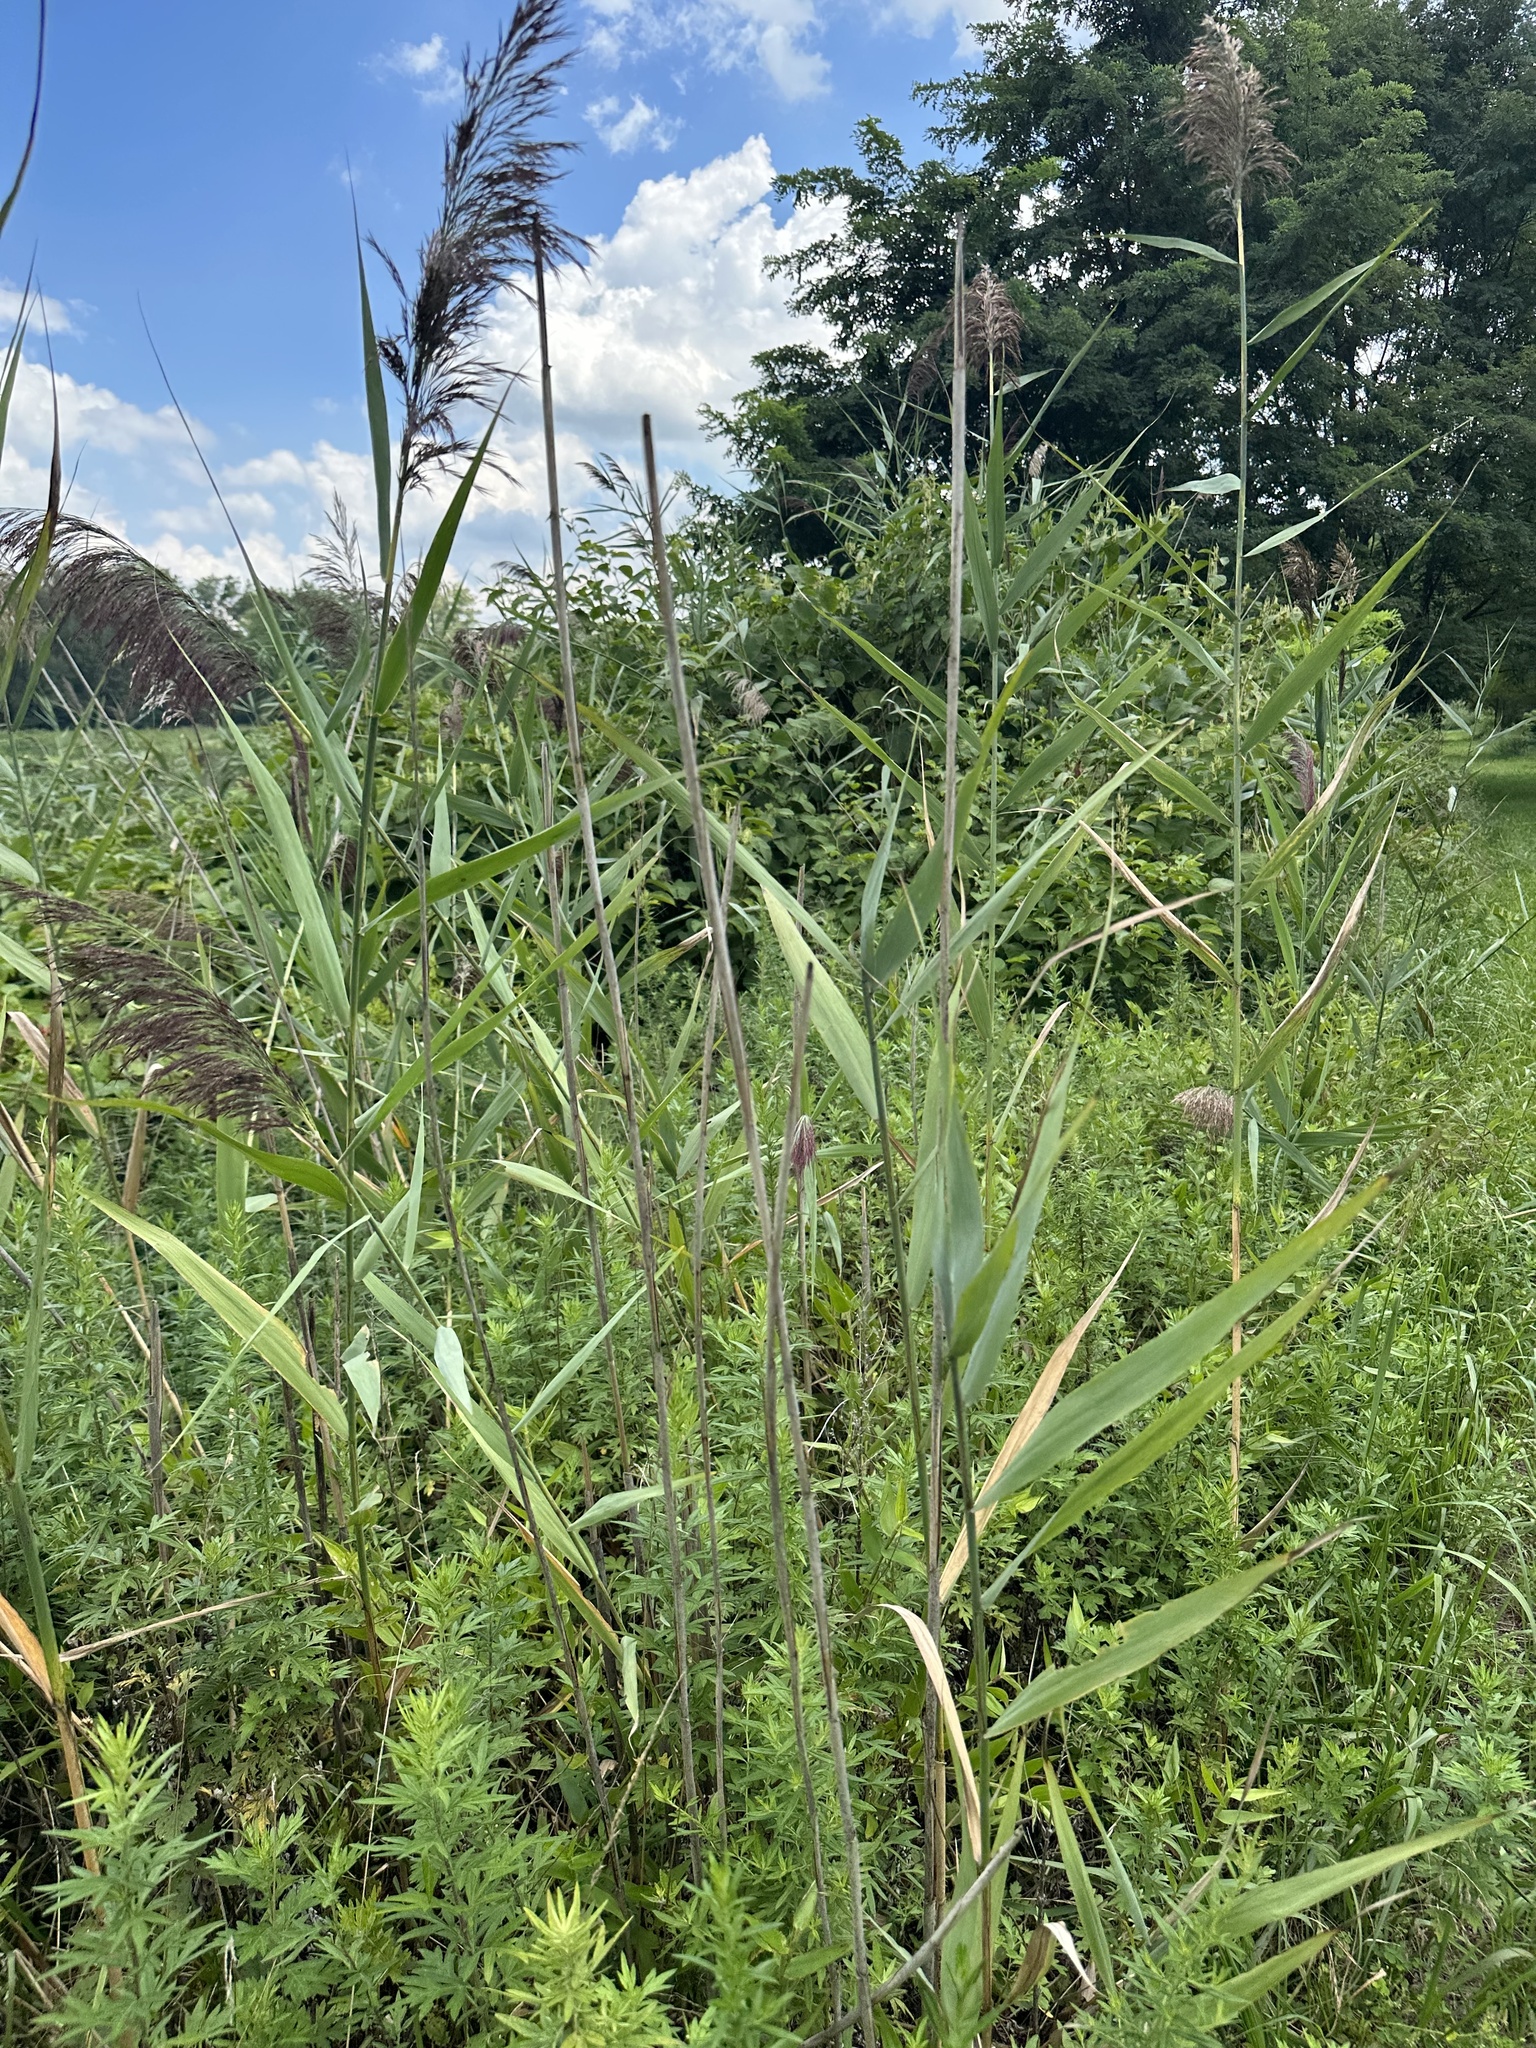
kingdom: Plantae
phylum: Tracheophyta
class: Liliopsida
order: Poales
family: Poaceae
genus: Phragmites
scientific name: Phragmites australis
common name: Common reed
